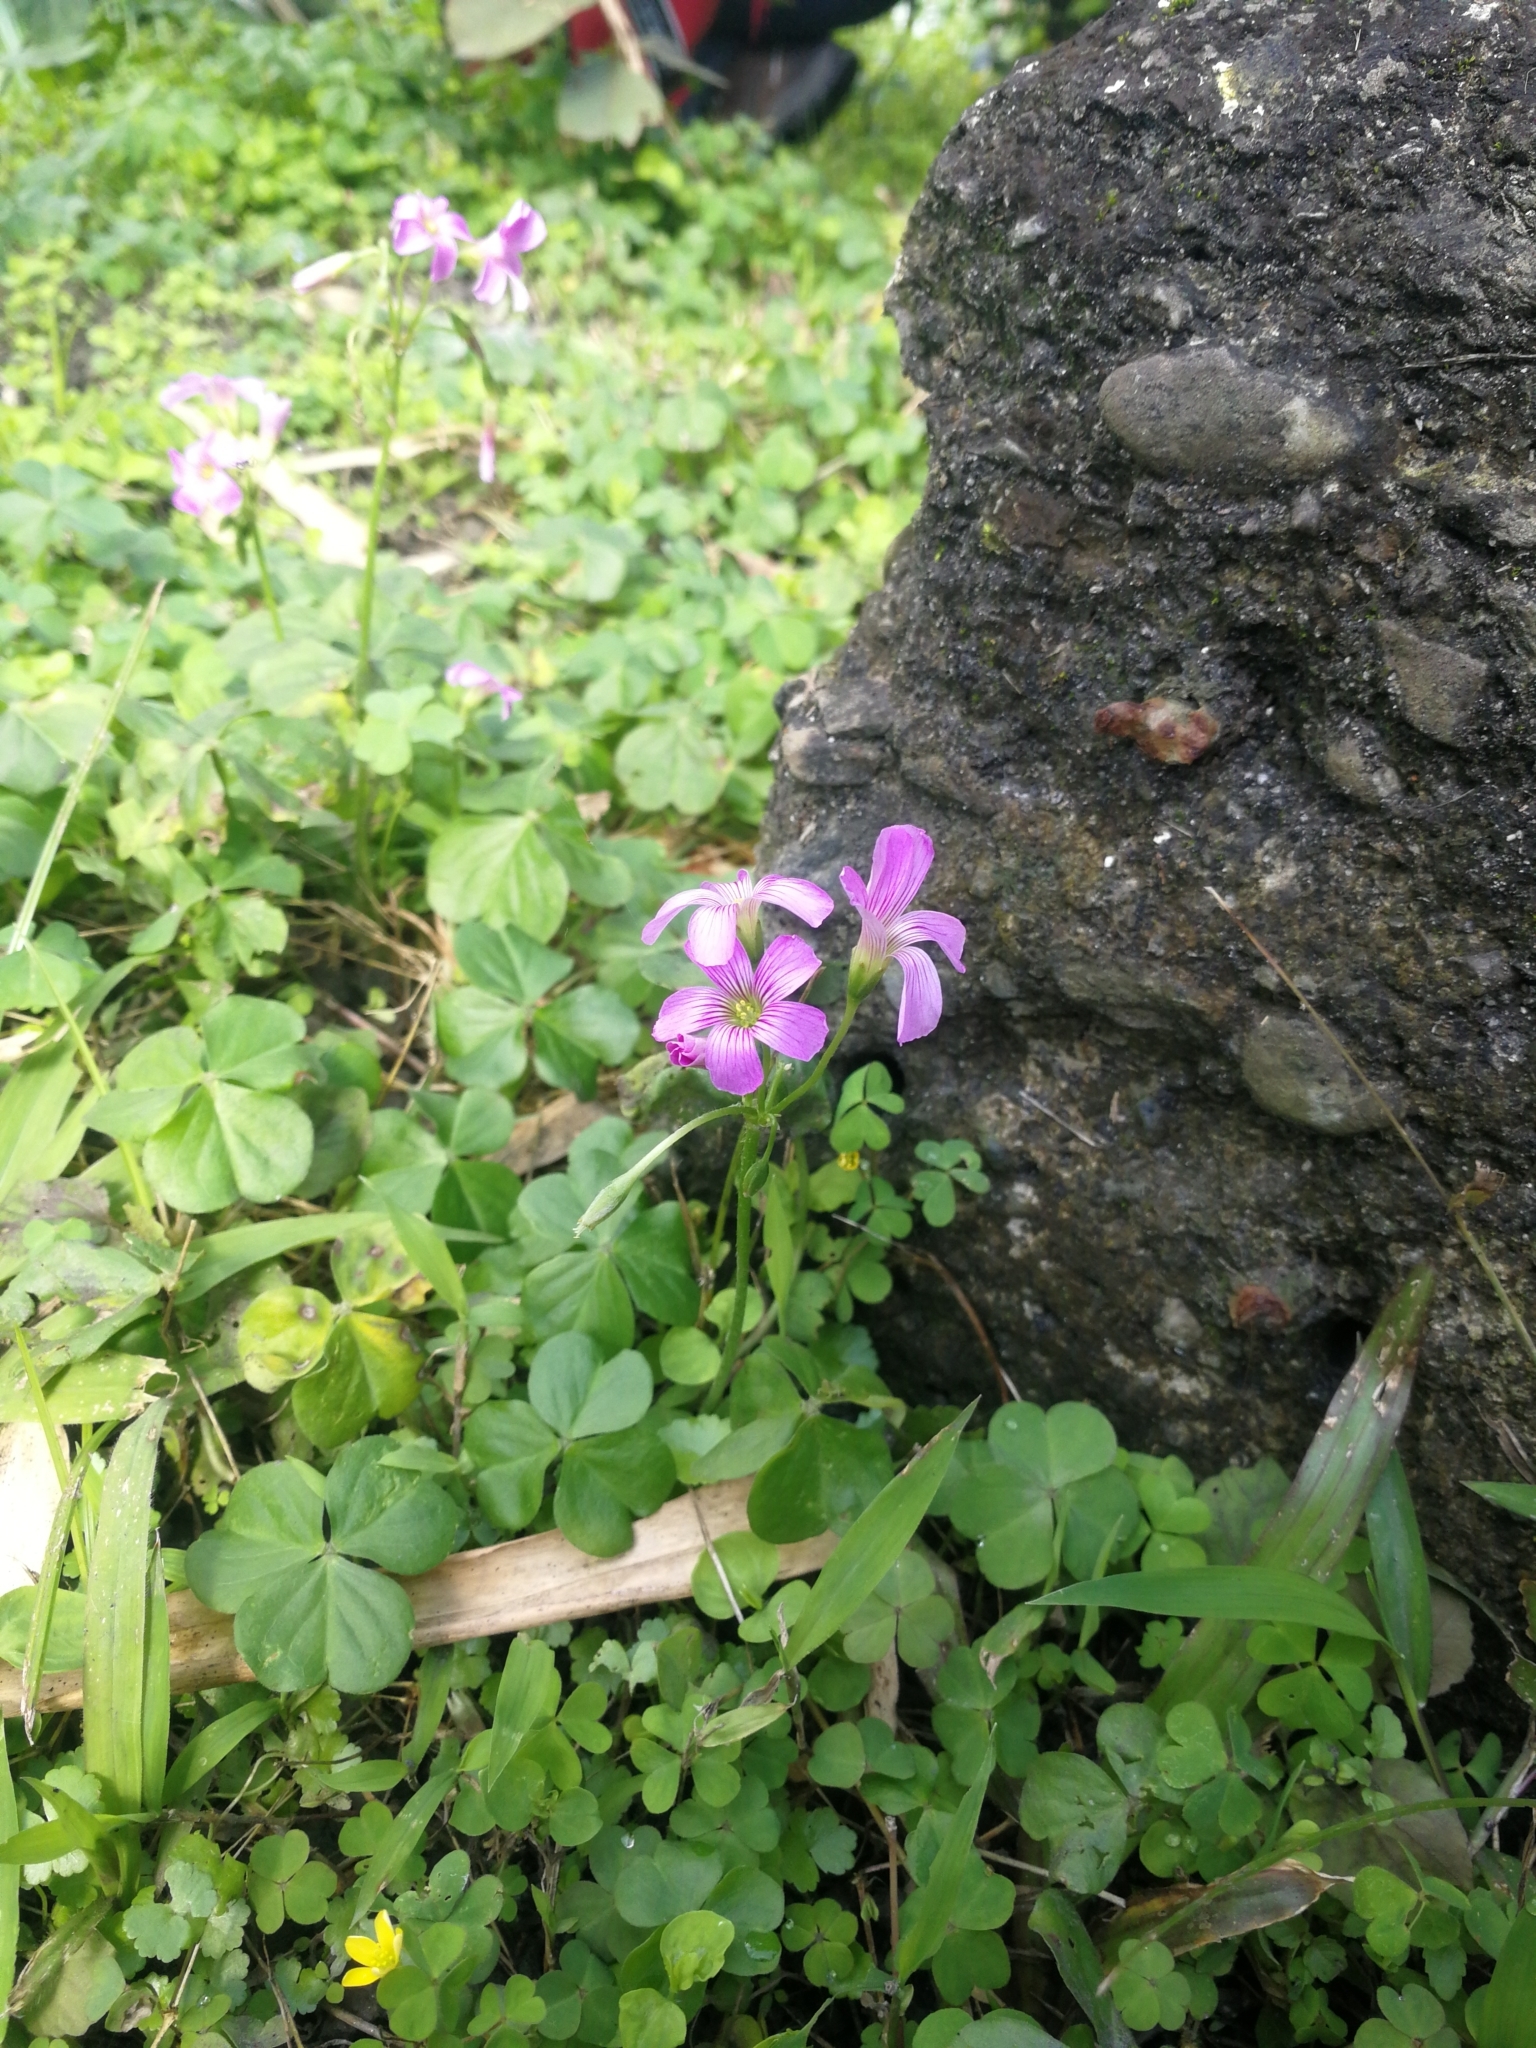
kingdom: Plantae
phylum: Tracheophyta
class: Magnoliopsida
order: Oxalidales
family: Oxalidaceae
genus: Oxalis
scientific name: Oxalis debilis
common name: Large-flowered pink-sorrel
